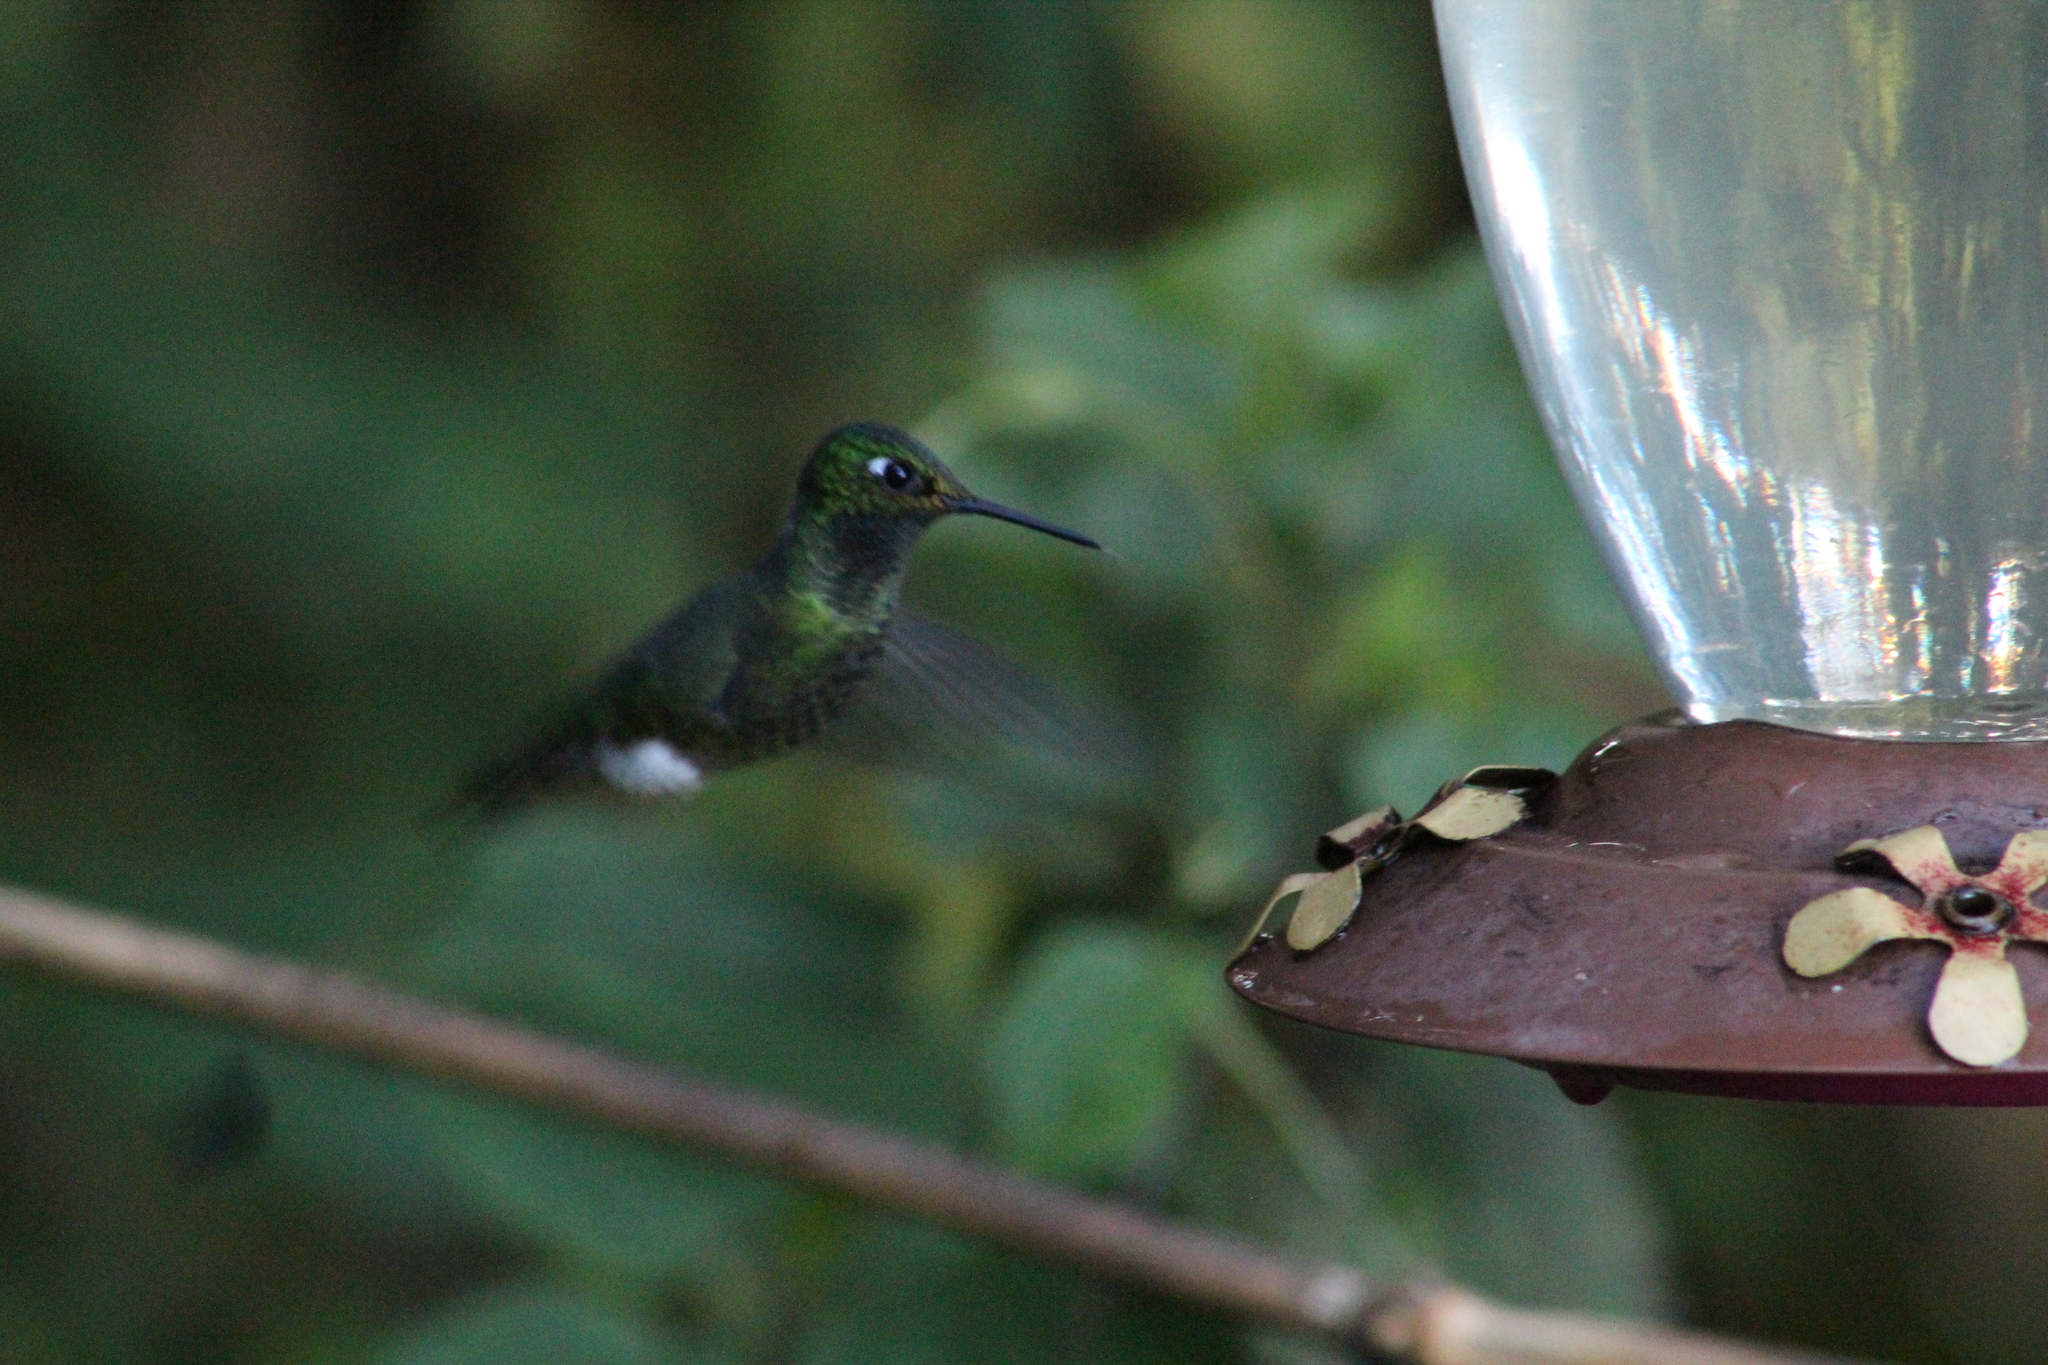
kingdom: Animalia
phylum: Chordata
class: Aves
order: Apodiformes
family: Trochilidae
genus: Ocreatus
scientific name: Ocreatus underwoodii
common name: Booted racket-tail
